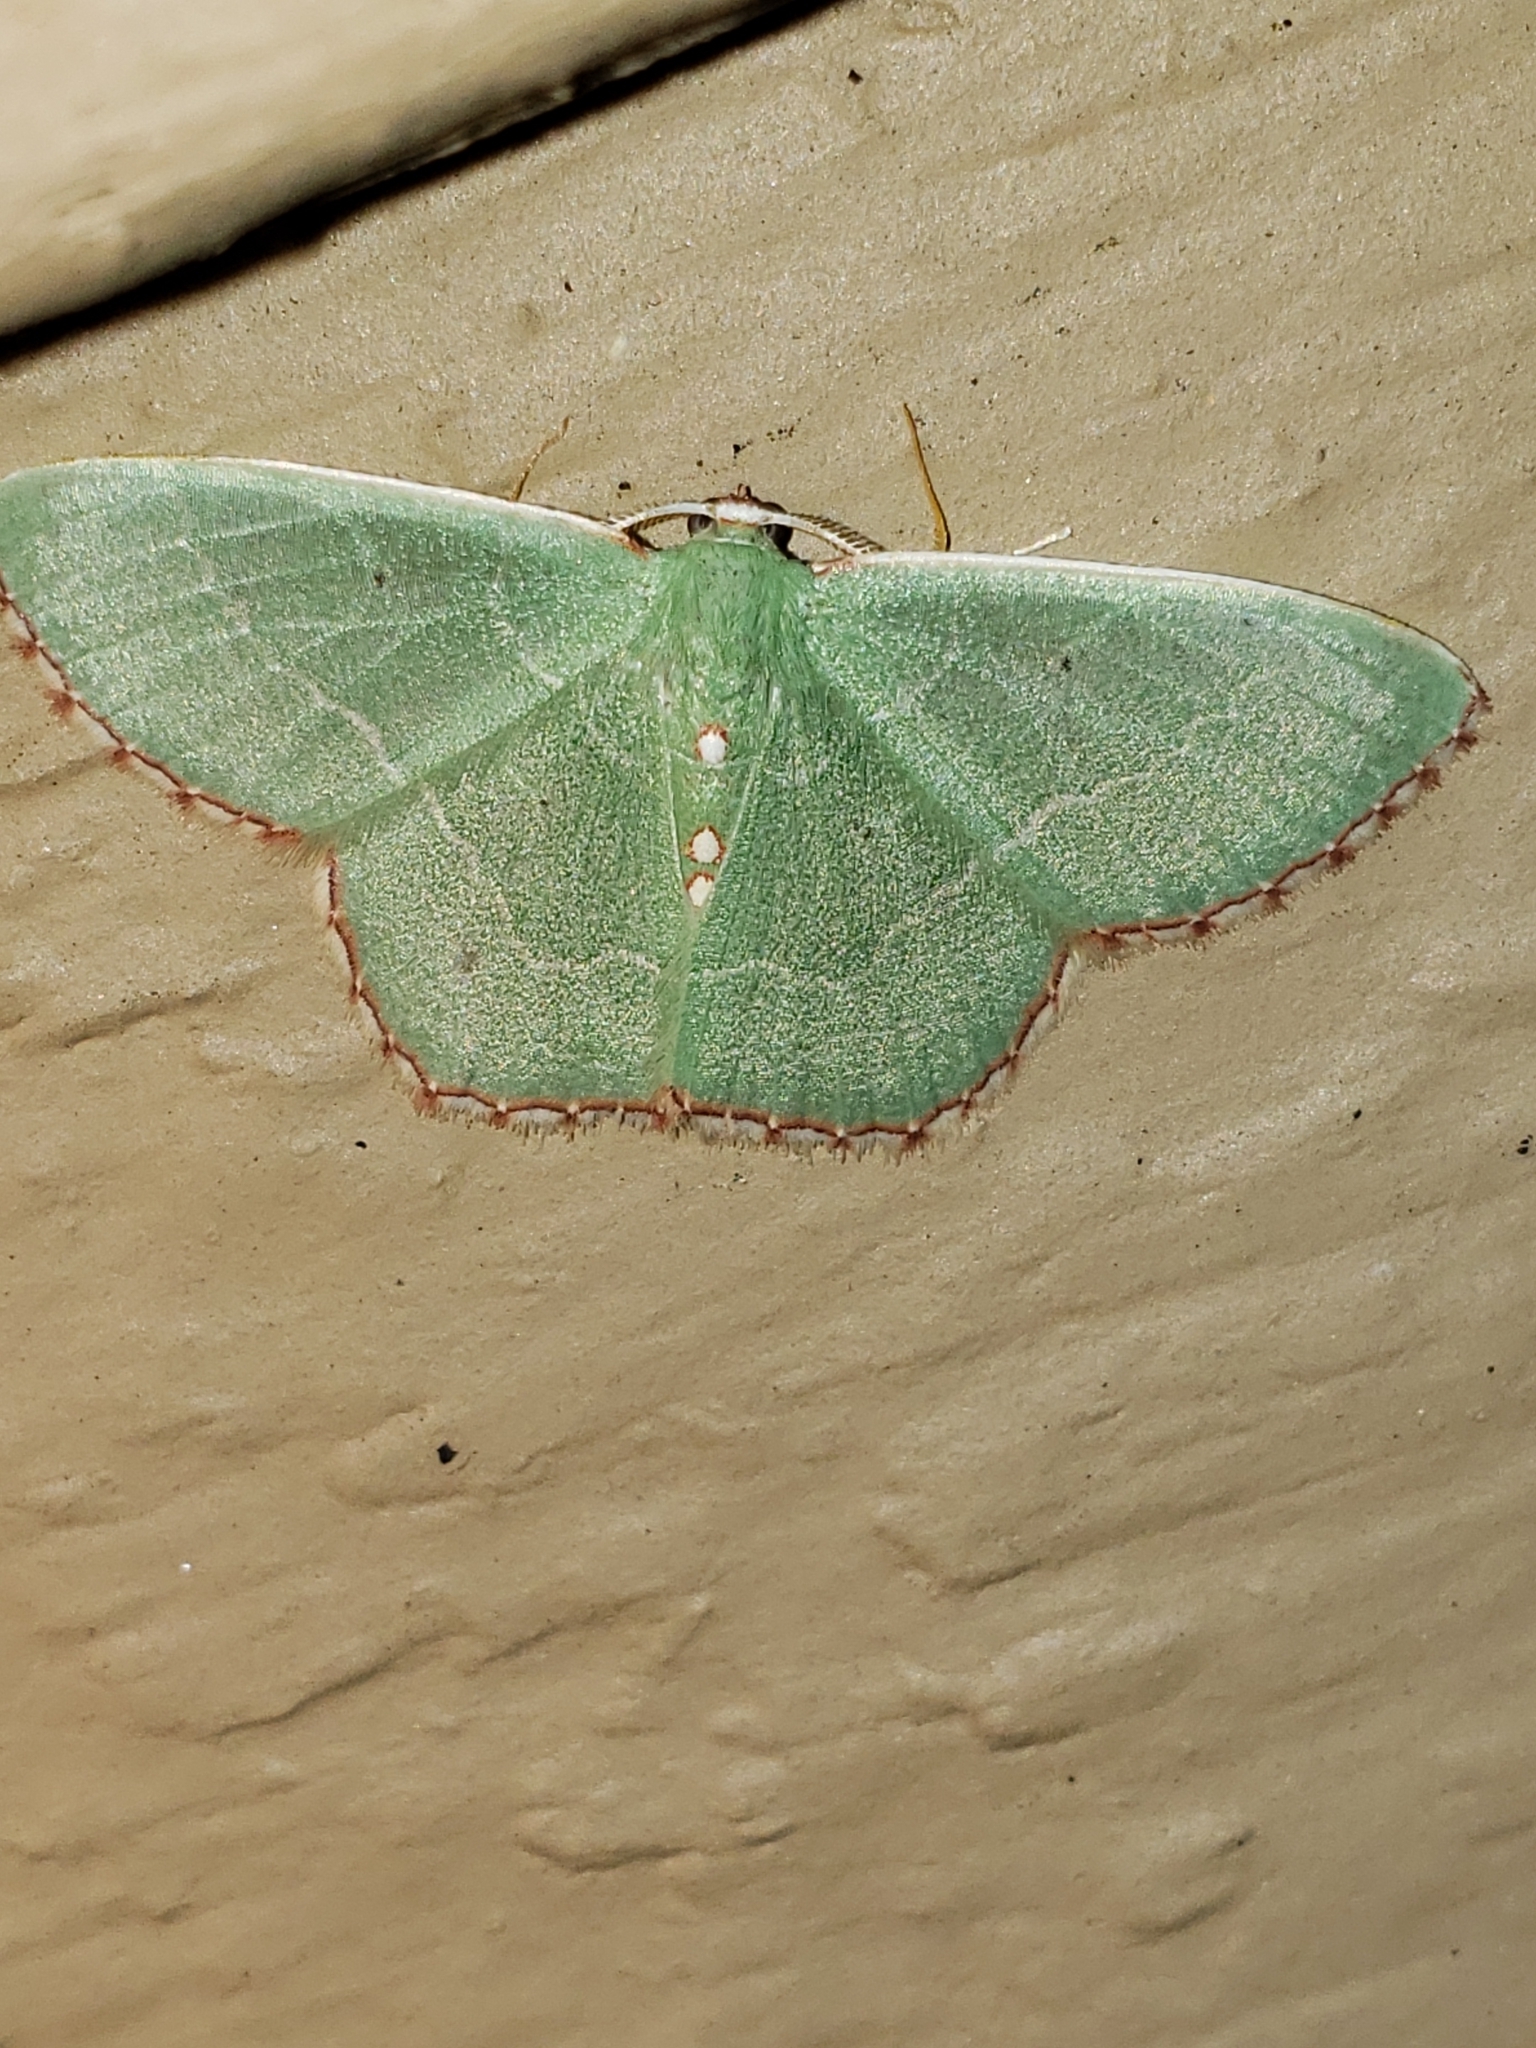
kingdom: Animalia
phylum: Arthropoda
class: Insecta
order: Lepidoptera
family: Geometridae
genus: Nemoria
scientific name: Nemoria lixaria
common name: Red-bordered emerald
